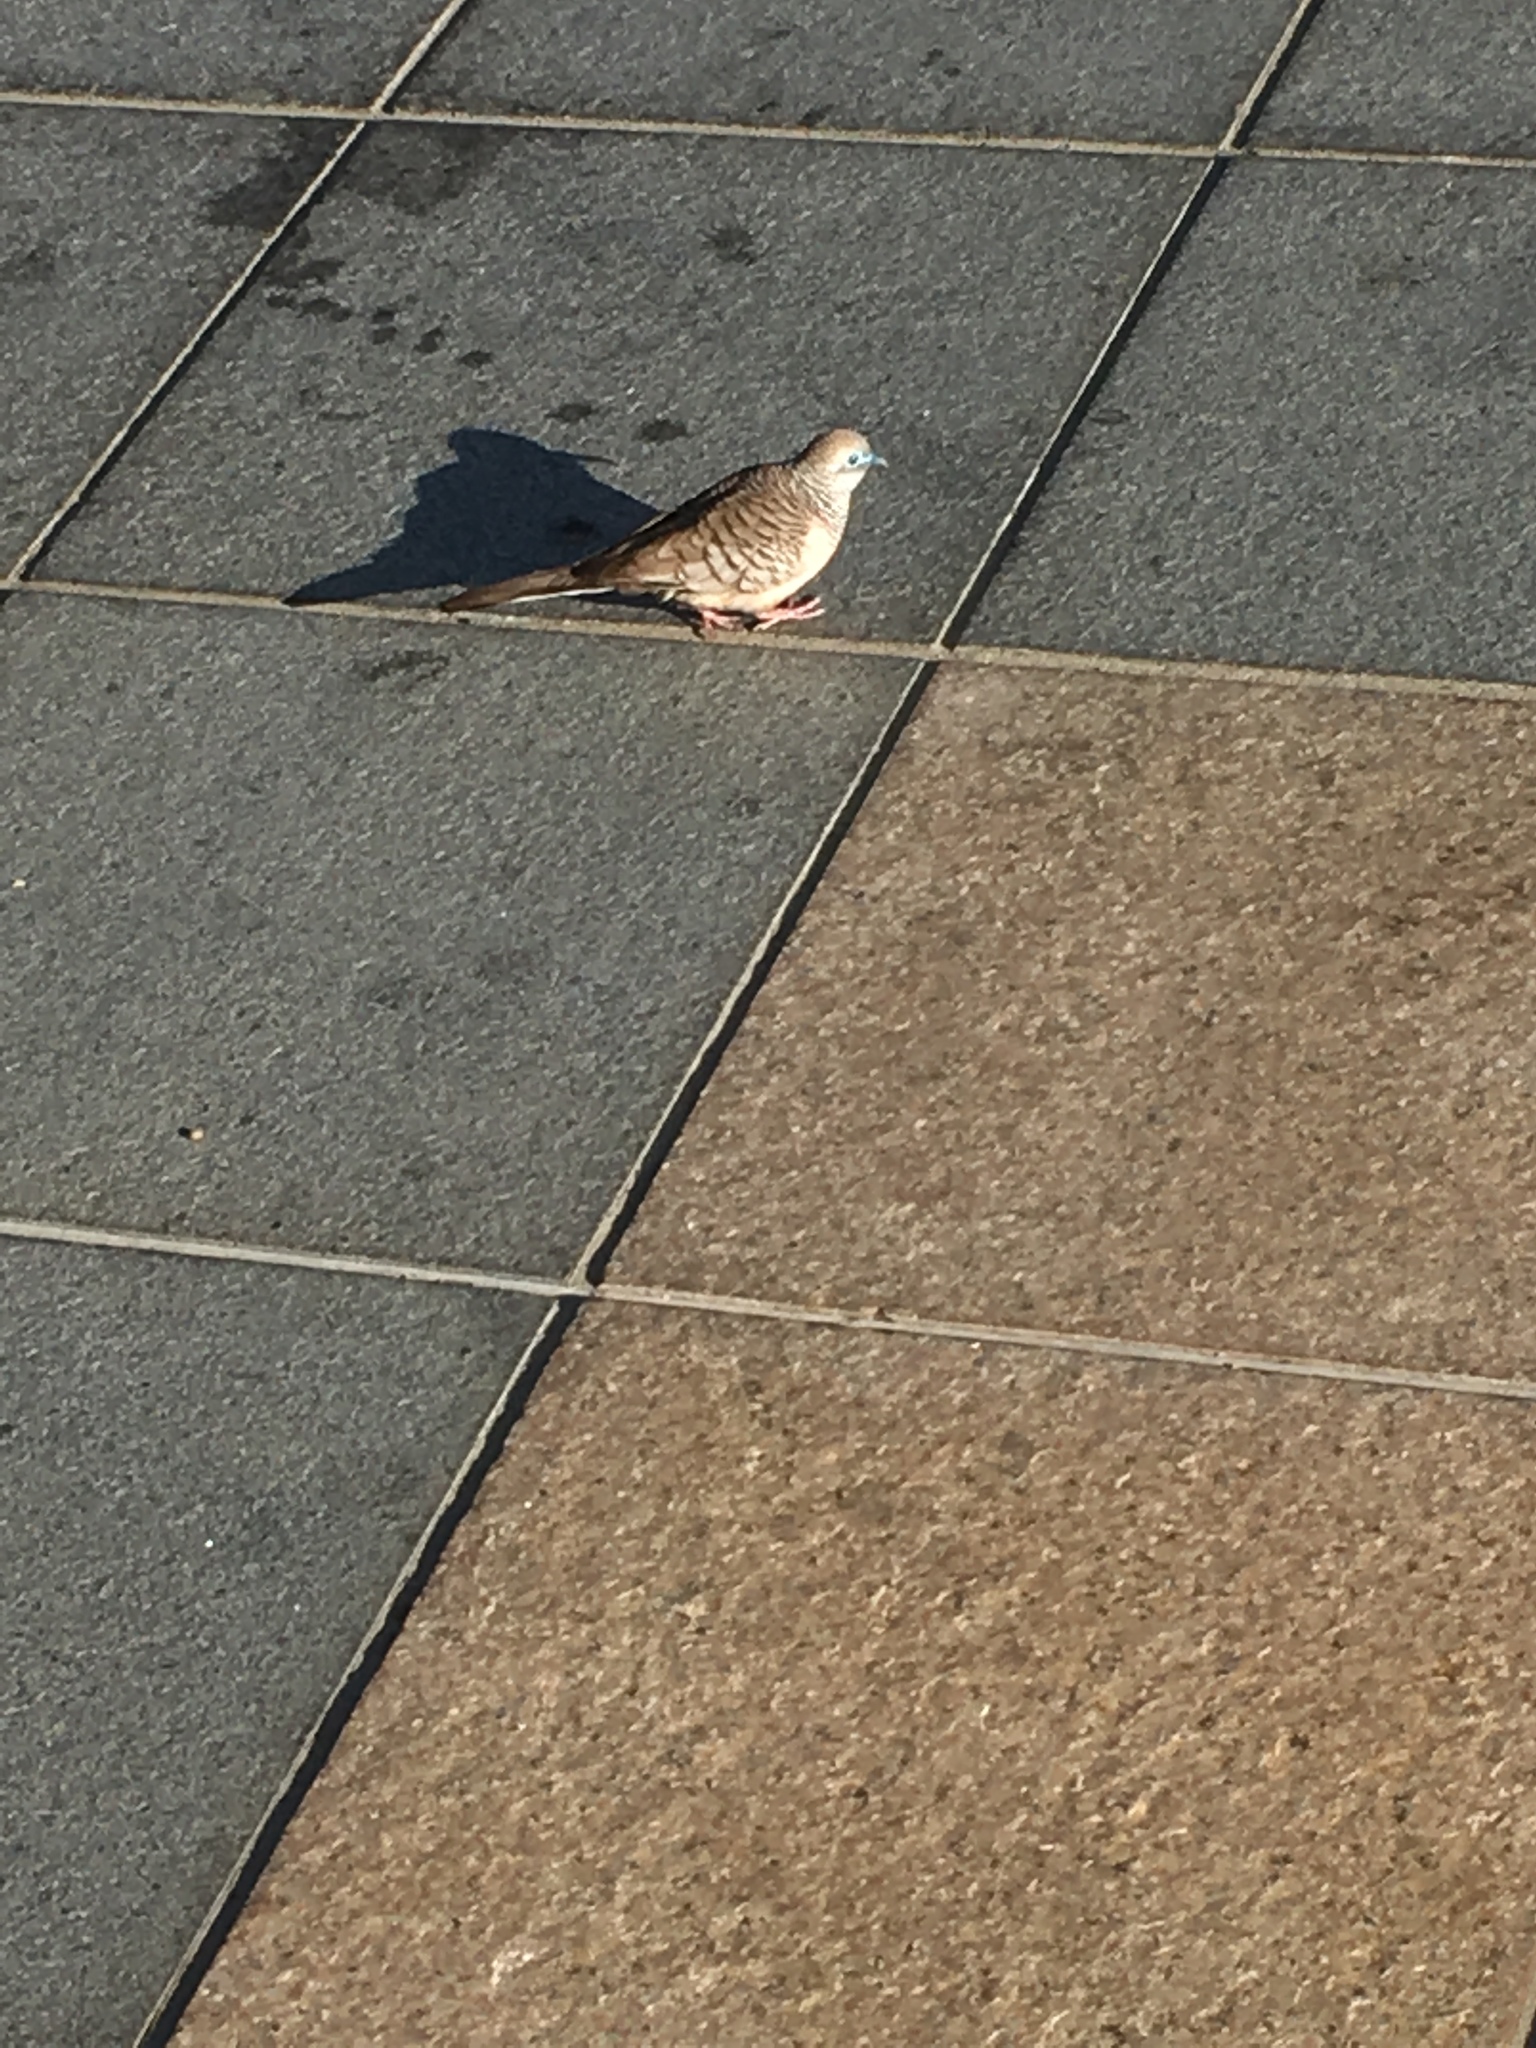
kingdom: Animalia
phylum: Chordata
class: Aves
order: Columbiformes
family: Columbidae
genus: Geopelia
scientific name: Geopelia placida
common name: Peaceful dove
